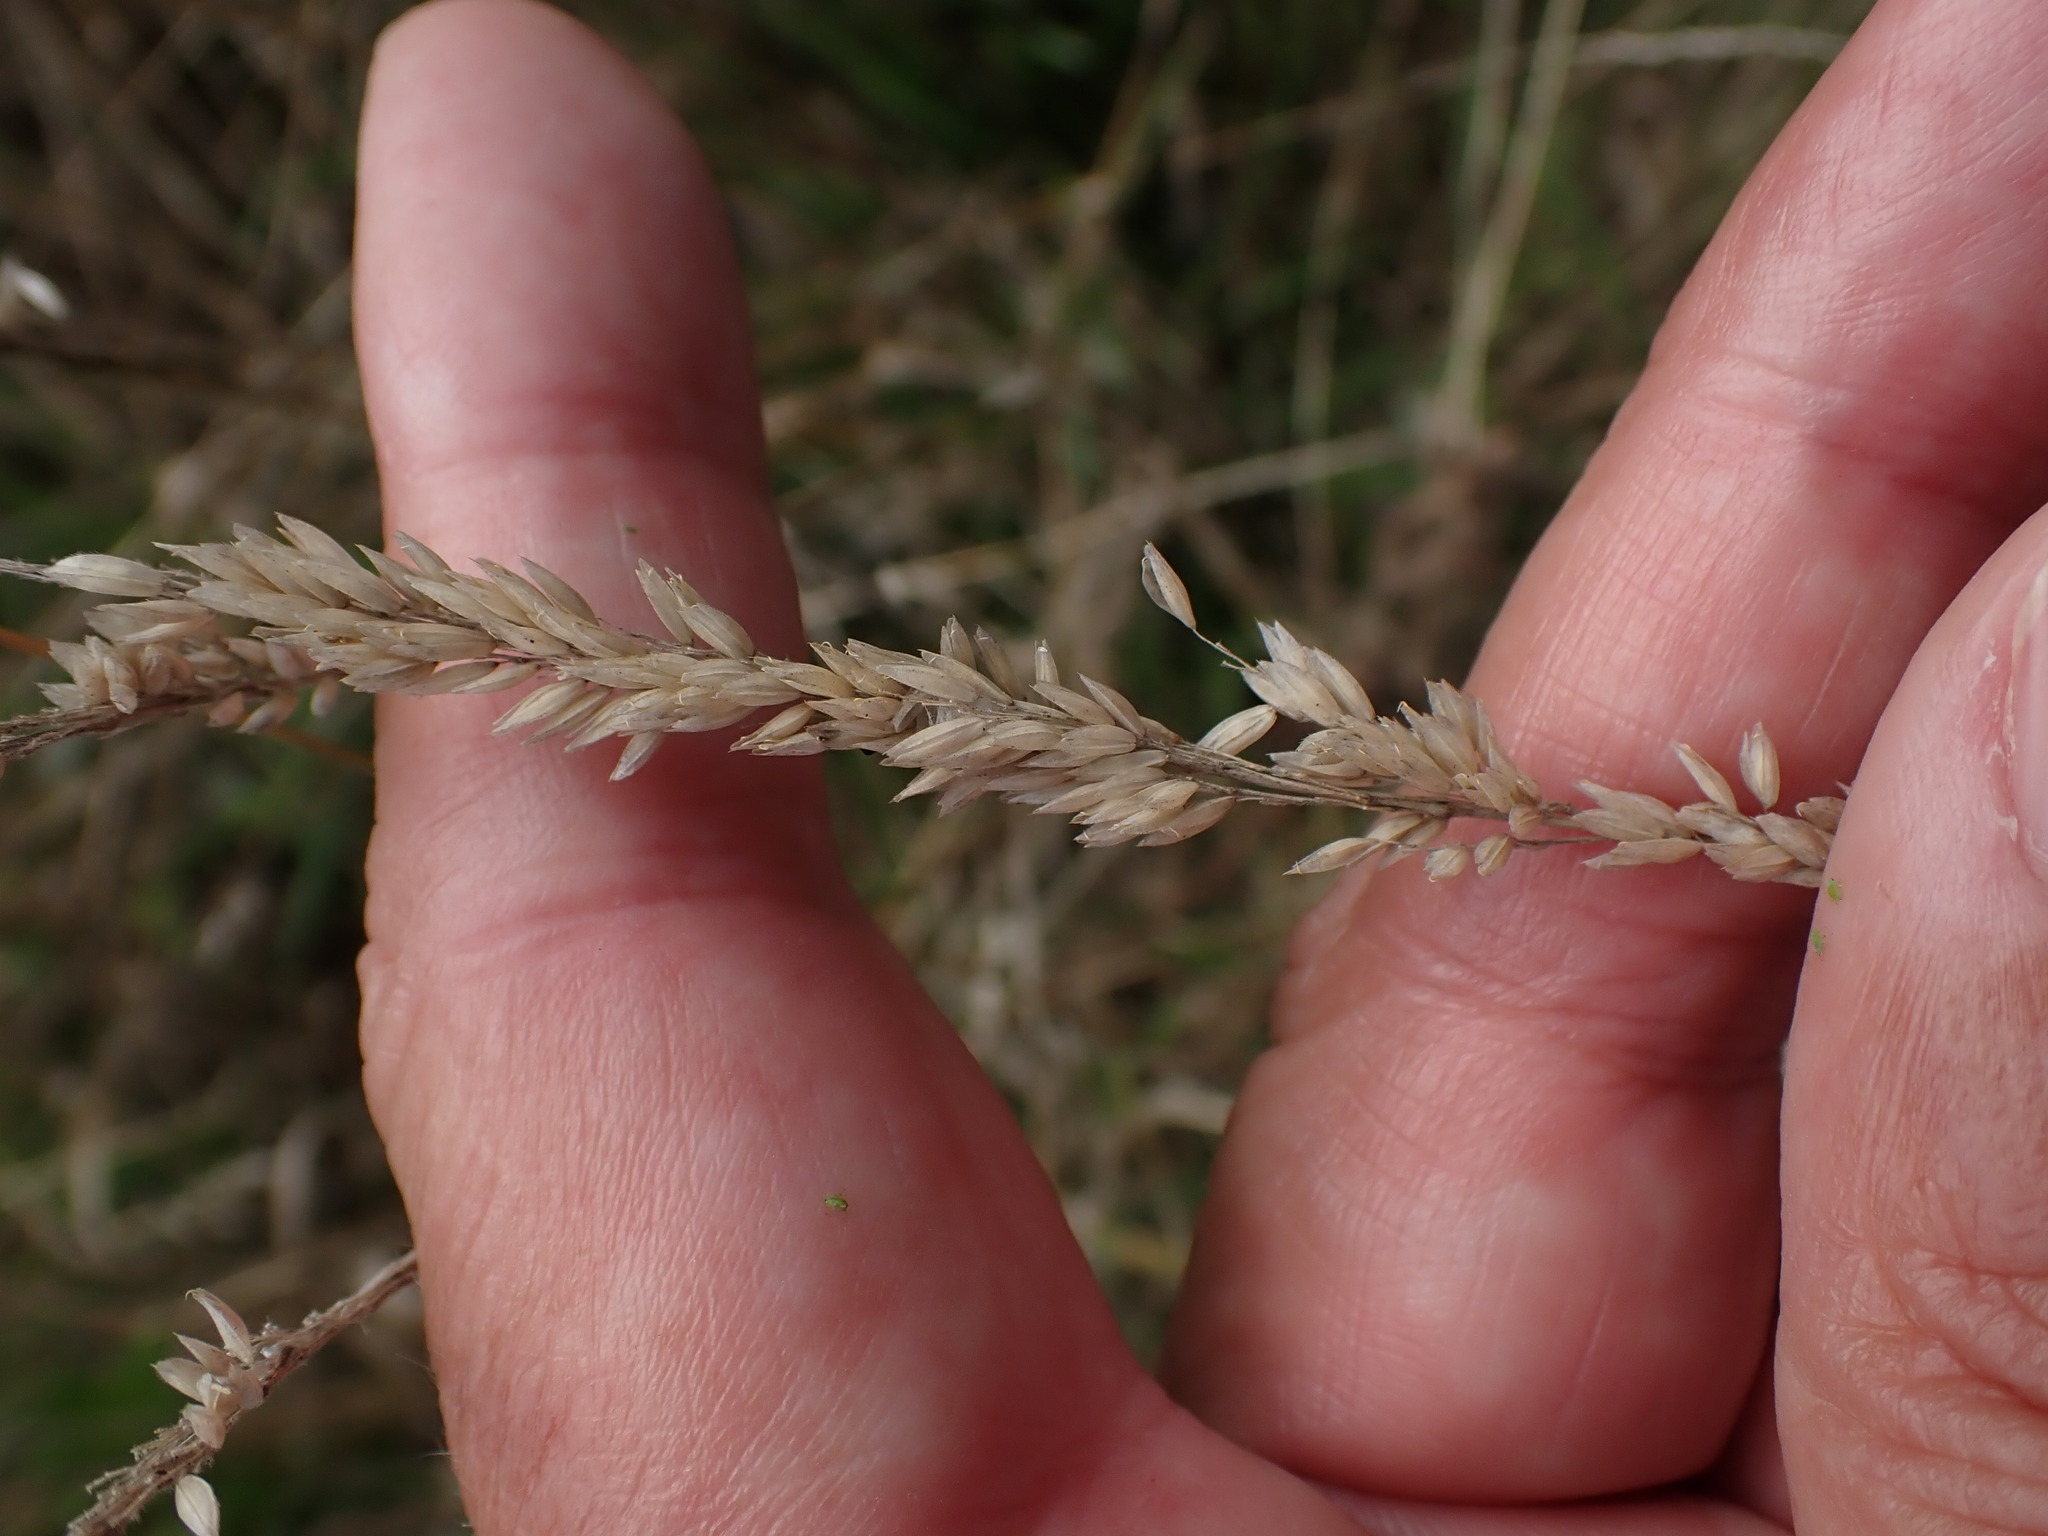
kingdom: Plantae
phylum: Tracheophyta
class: Liliopsida
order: Poales
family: Poaceae
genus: Holcus
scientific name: Holcus lanatus
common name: Yorkshire-fog
